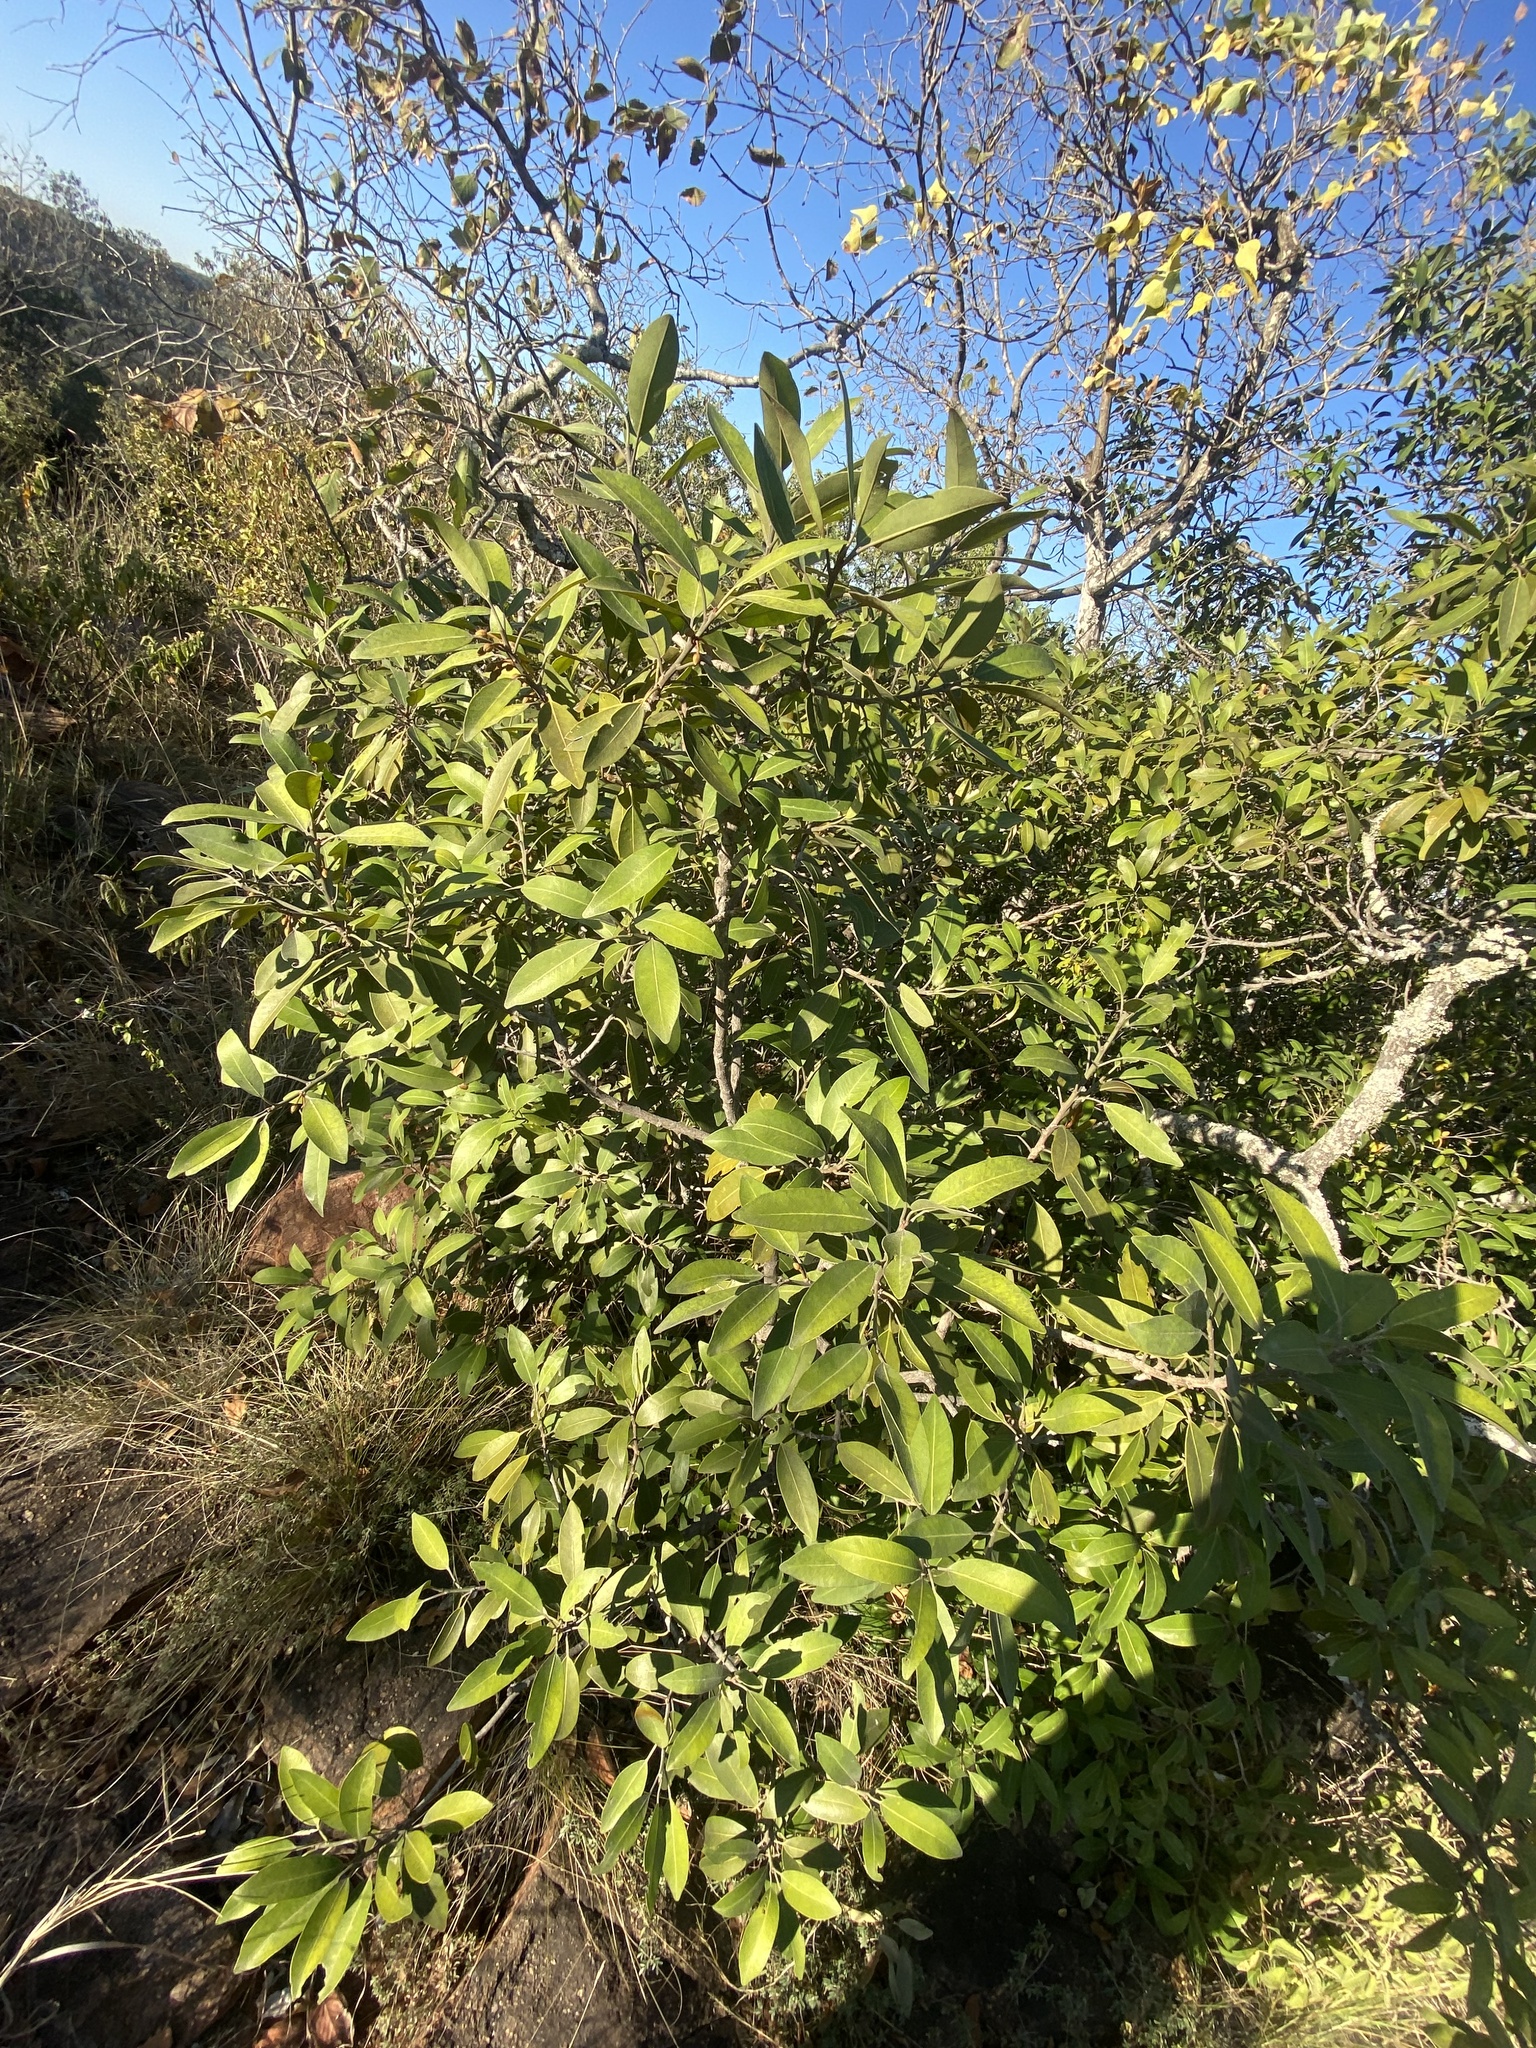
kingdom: Plantae
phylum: Tracheophyta
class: Magnoliopsida
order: Ericales
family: Sapotaceae
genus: Mimusops
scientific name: Mimusops zeyheri
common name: Transvaal red milkwood
